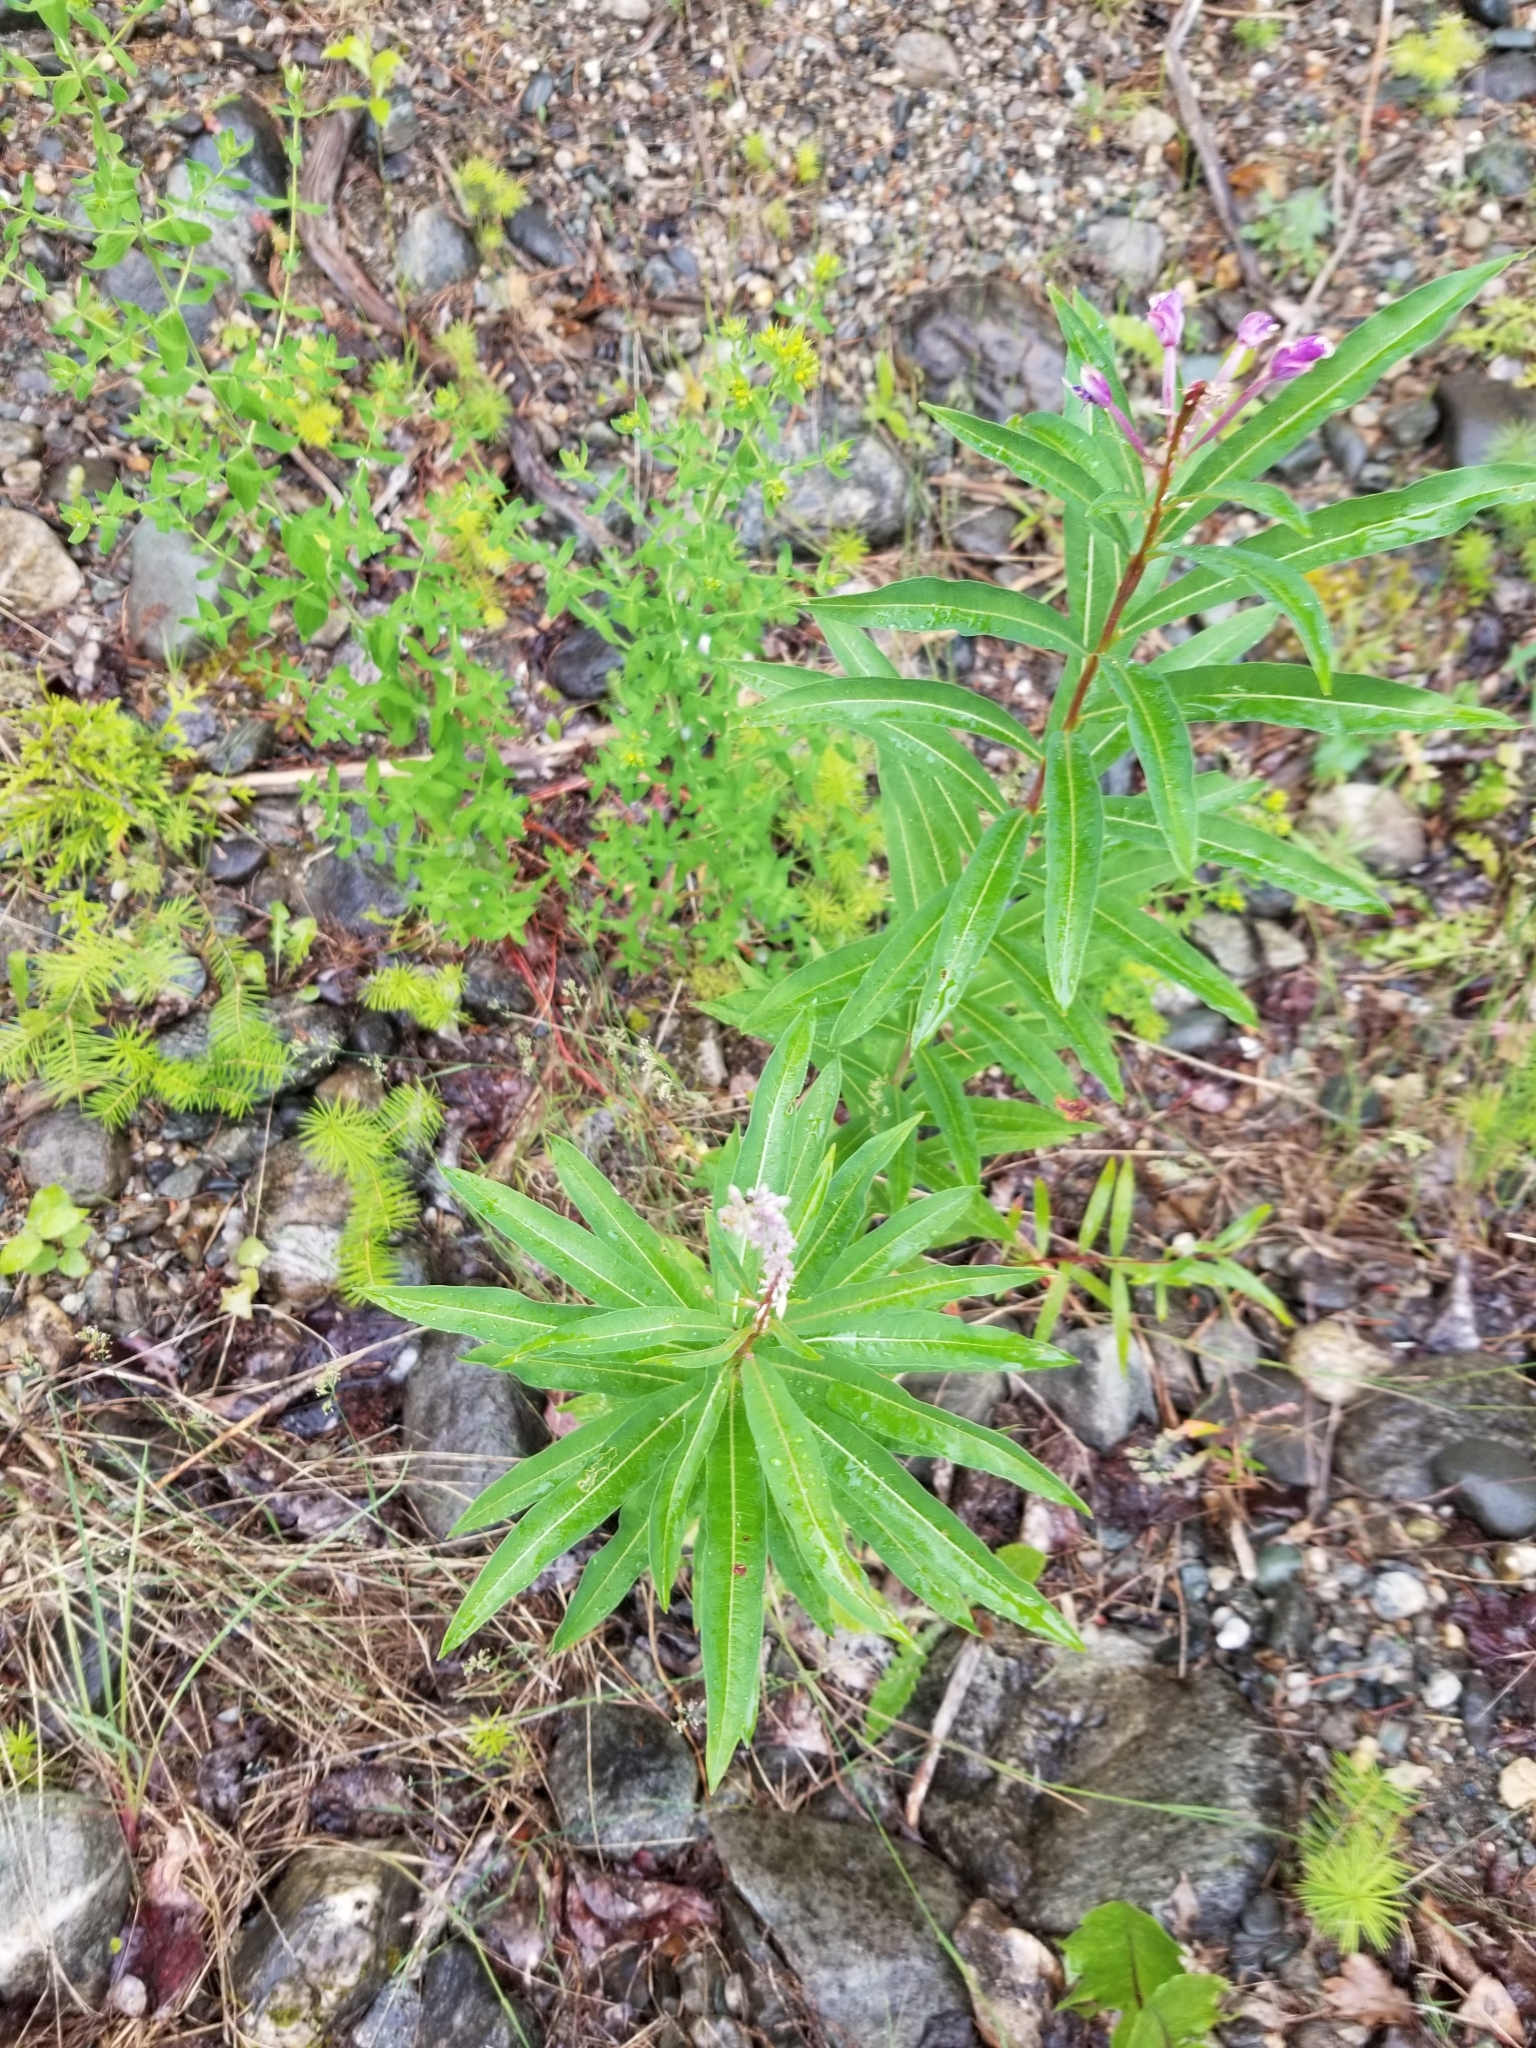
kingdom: Plantae
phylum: Tracheophyta
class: Magnoliopsida
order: Myrtales
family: Onagraceae
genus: Chamaenerion
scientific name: Chamaenerion angustifolium
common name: Fireweed
